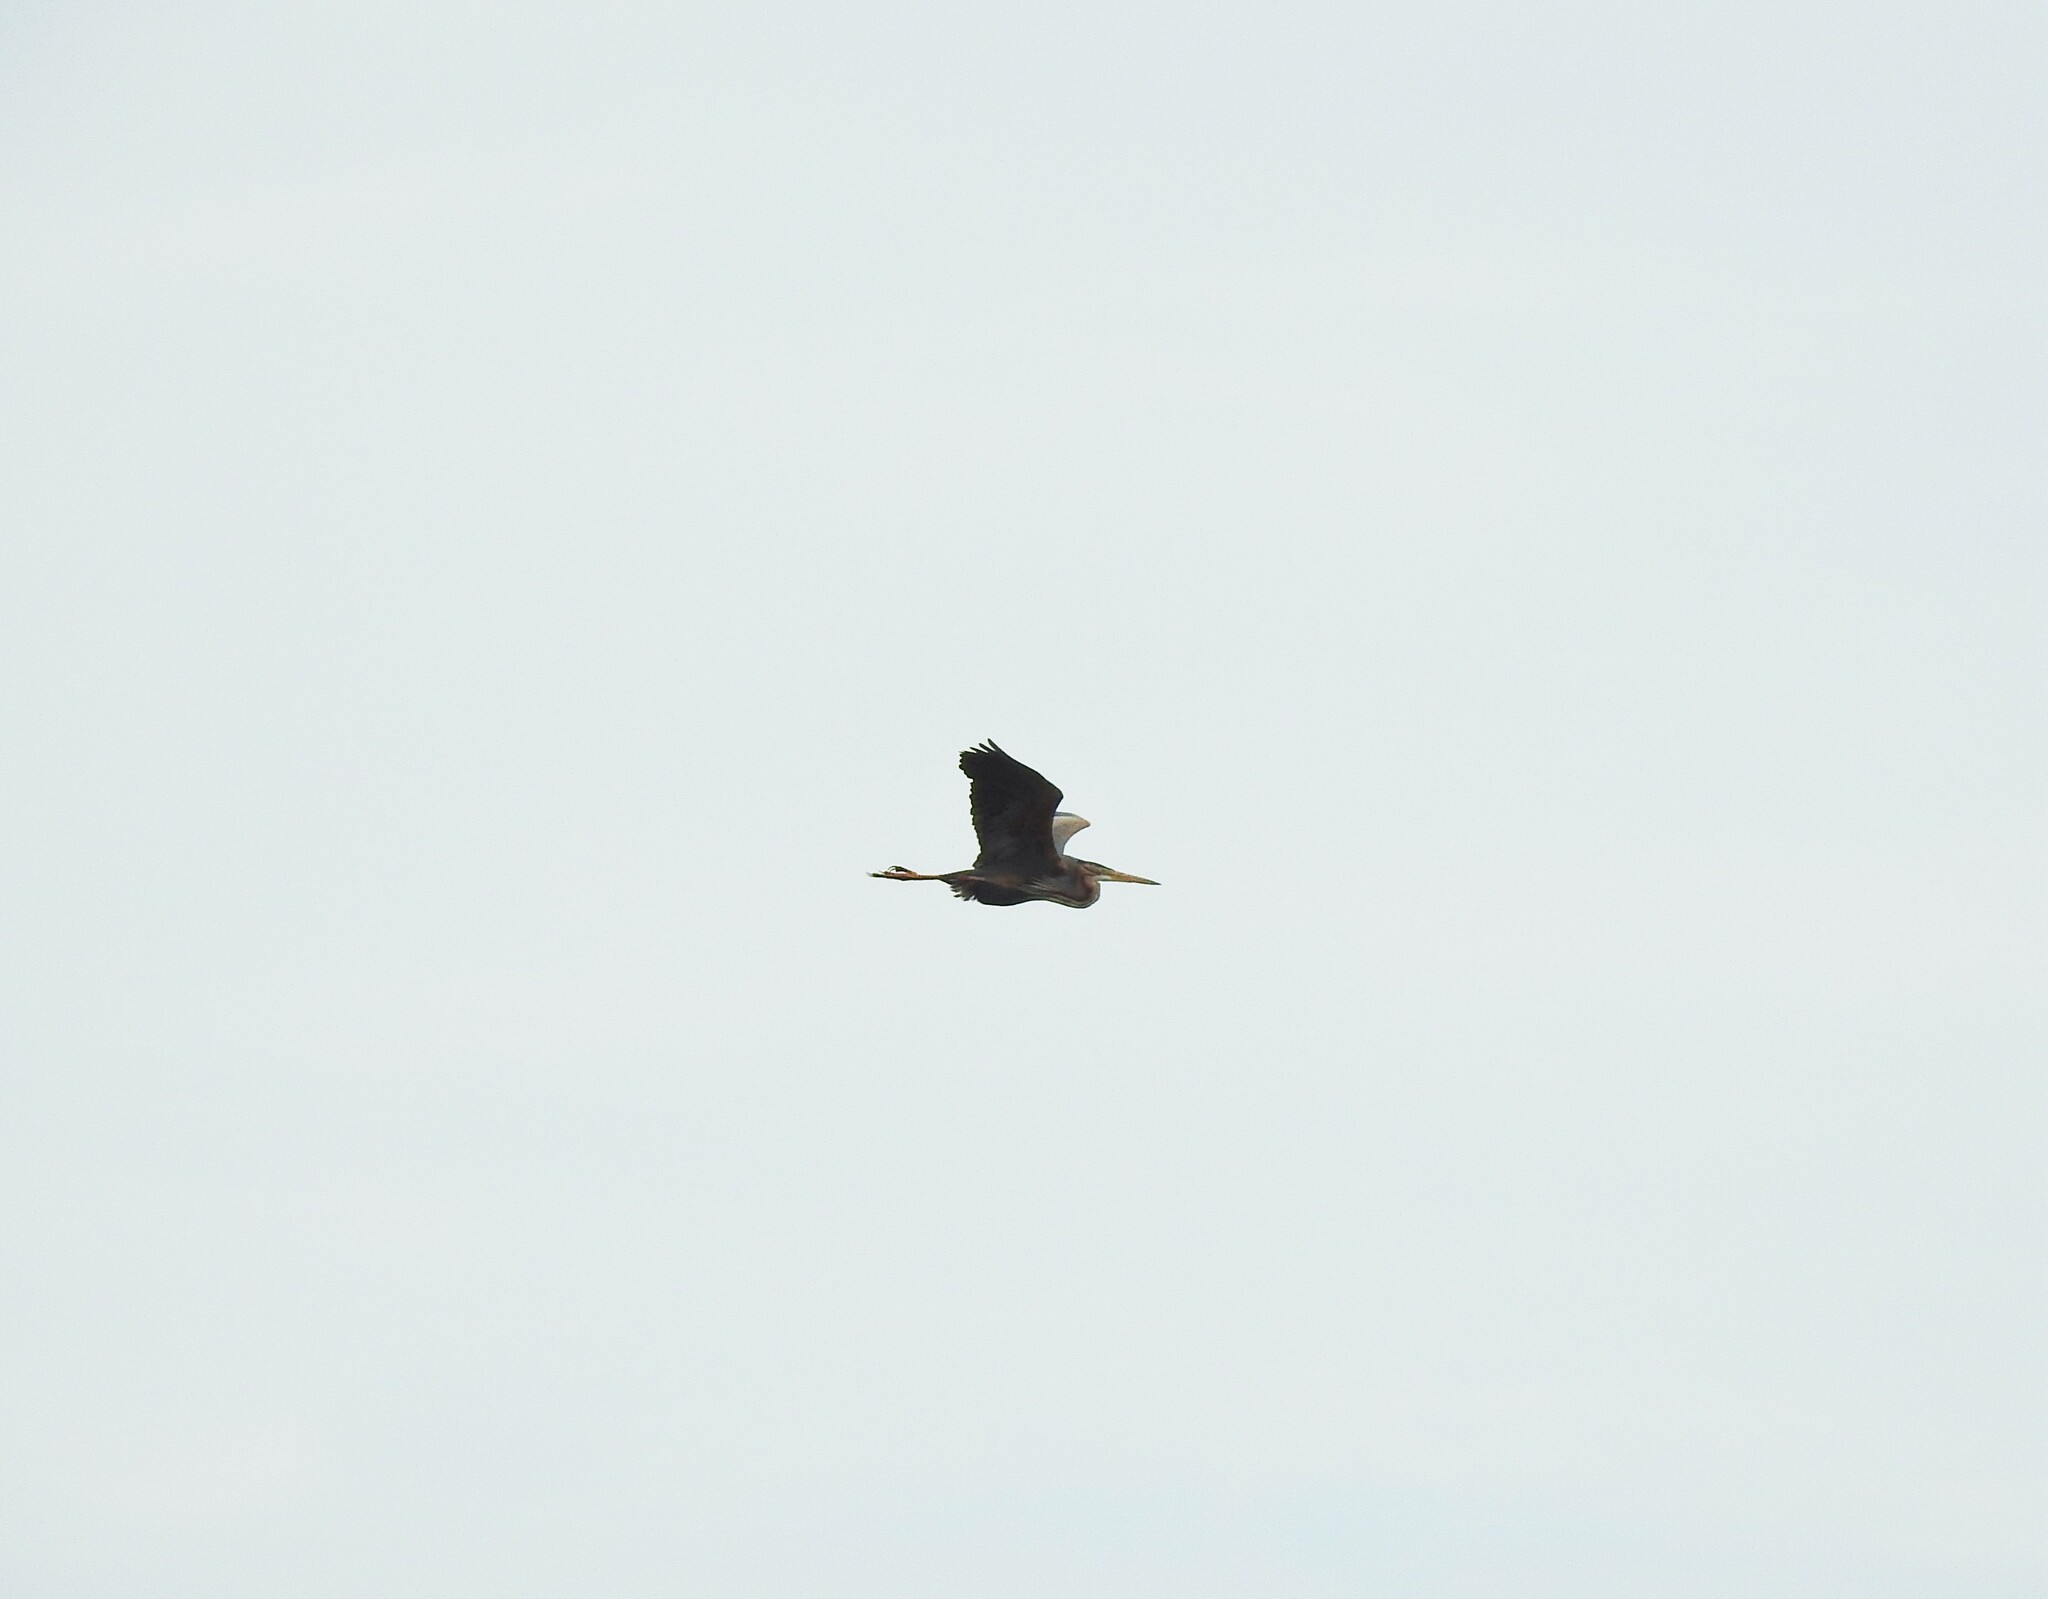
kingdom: Animalia
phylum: Chordata
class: Aves
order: Pelecaniformes
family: Ardeidae
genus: Ardea
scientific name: Ardea purpurea
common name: Purple heron
